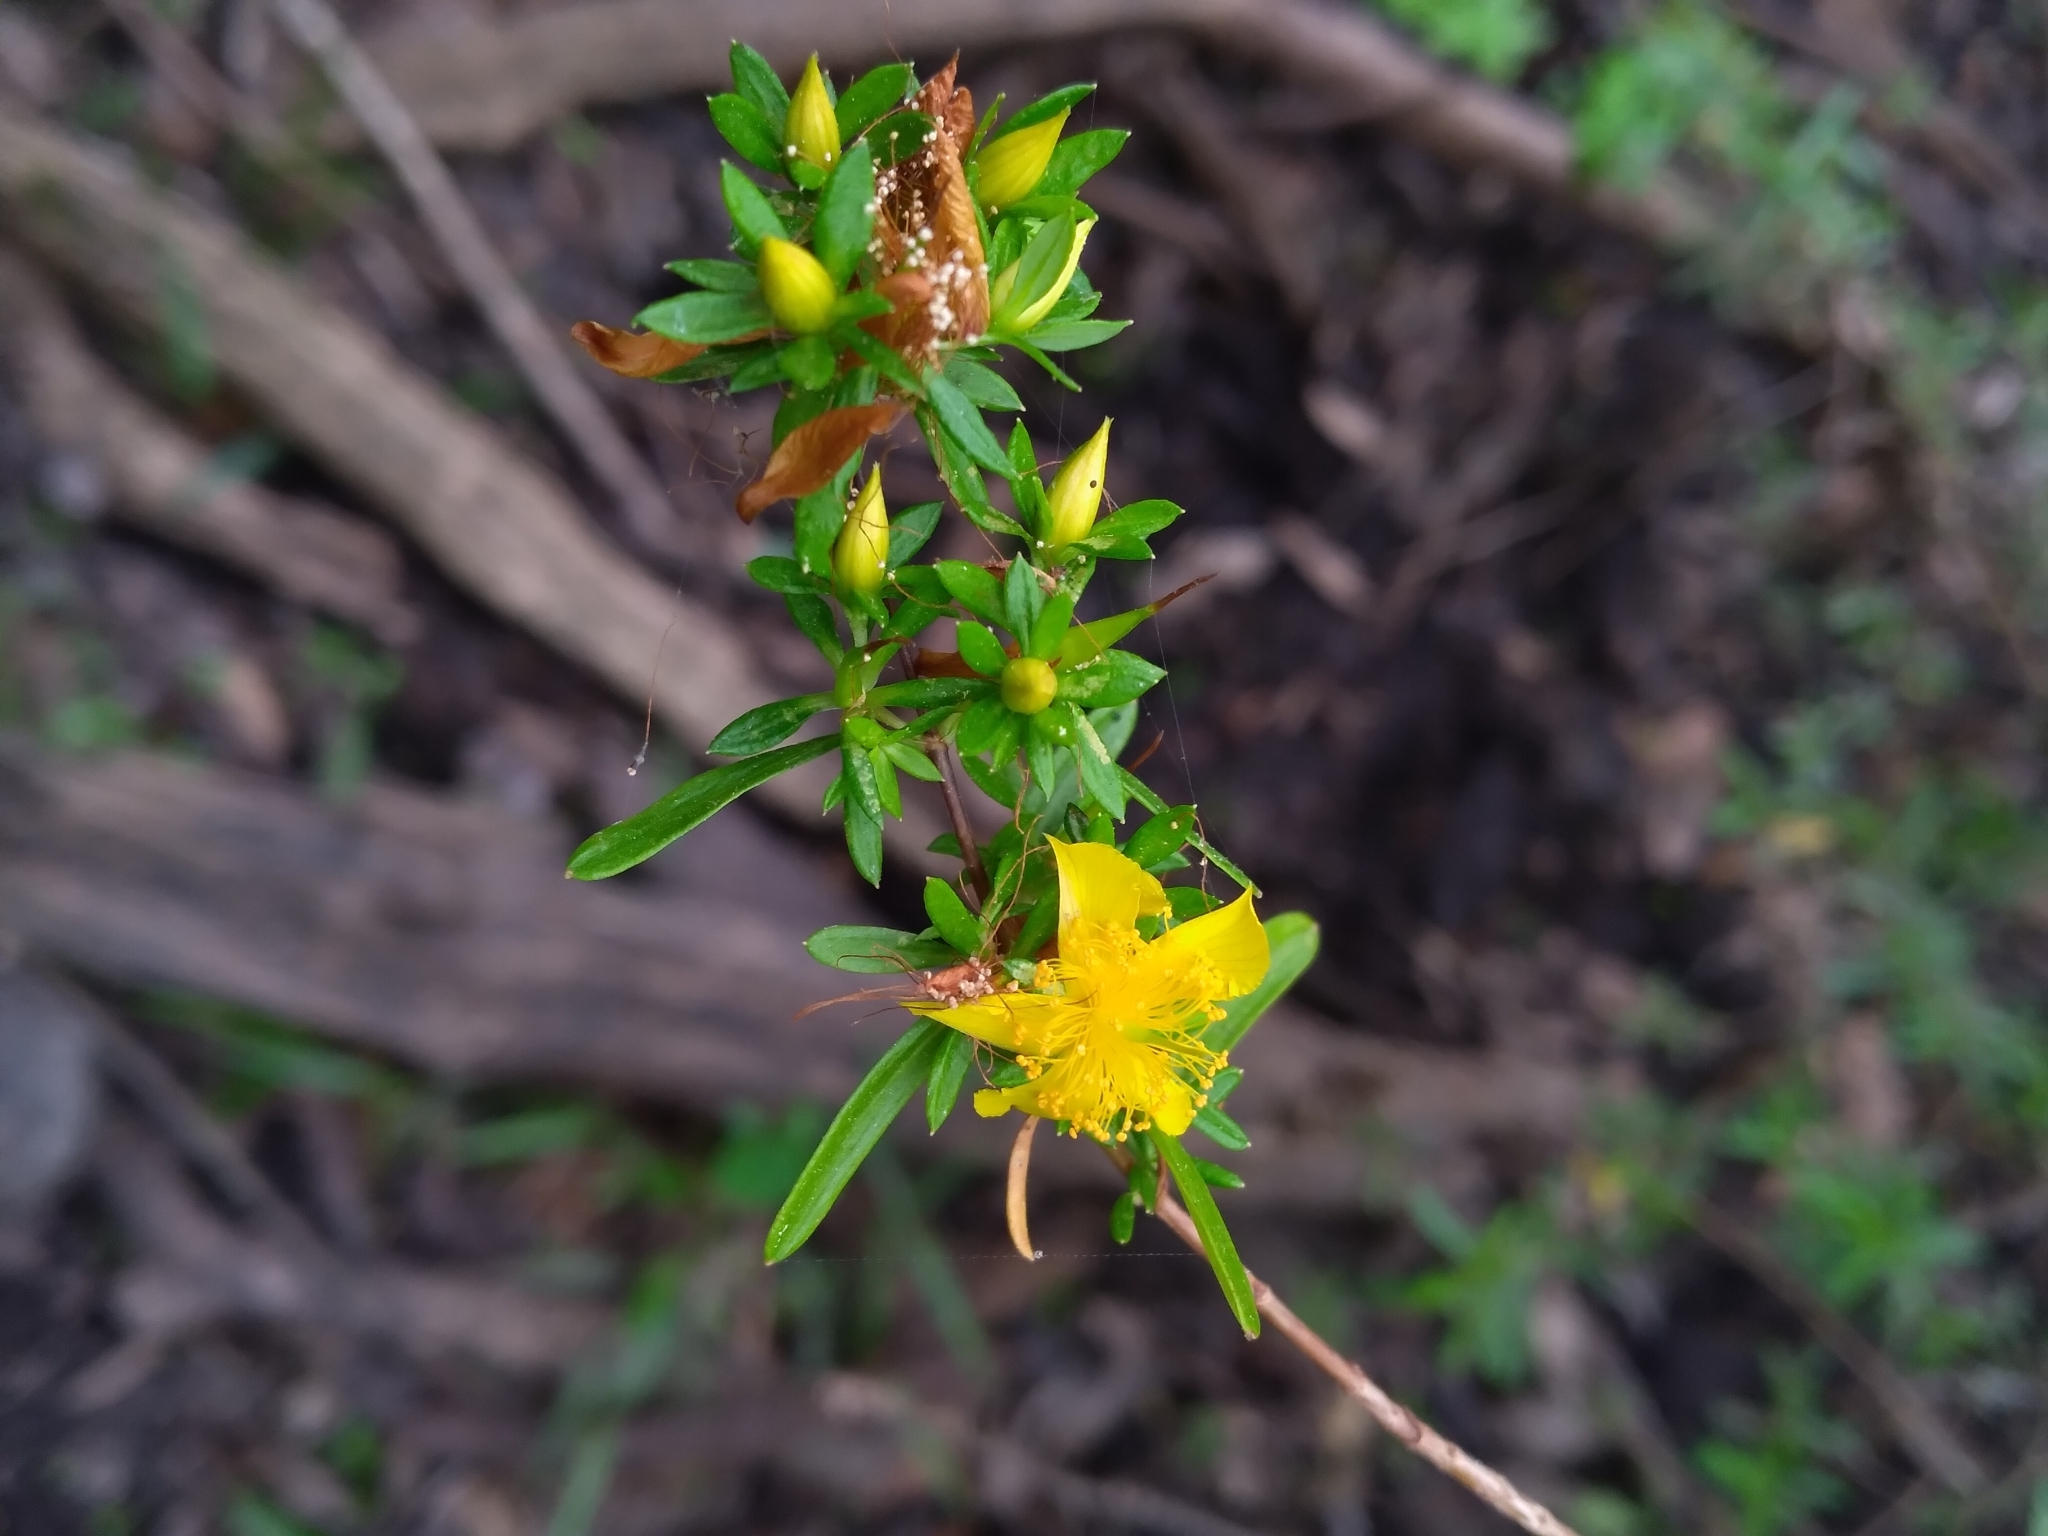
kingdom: Plantae
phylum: Tracheophyta
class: Magnoliopsida
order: Malpighiales
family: Hypericaceae
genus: Hypericum
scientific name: Hypericum galioides
